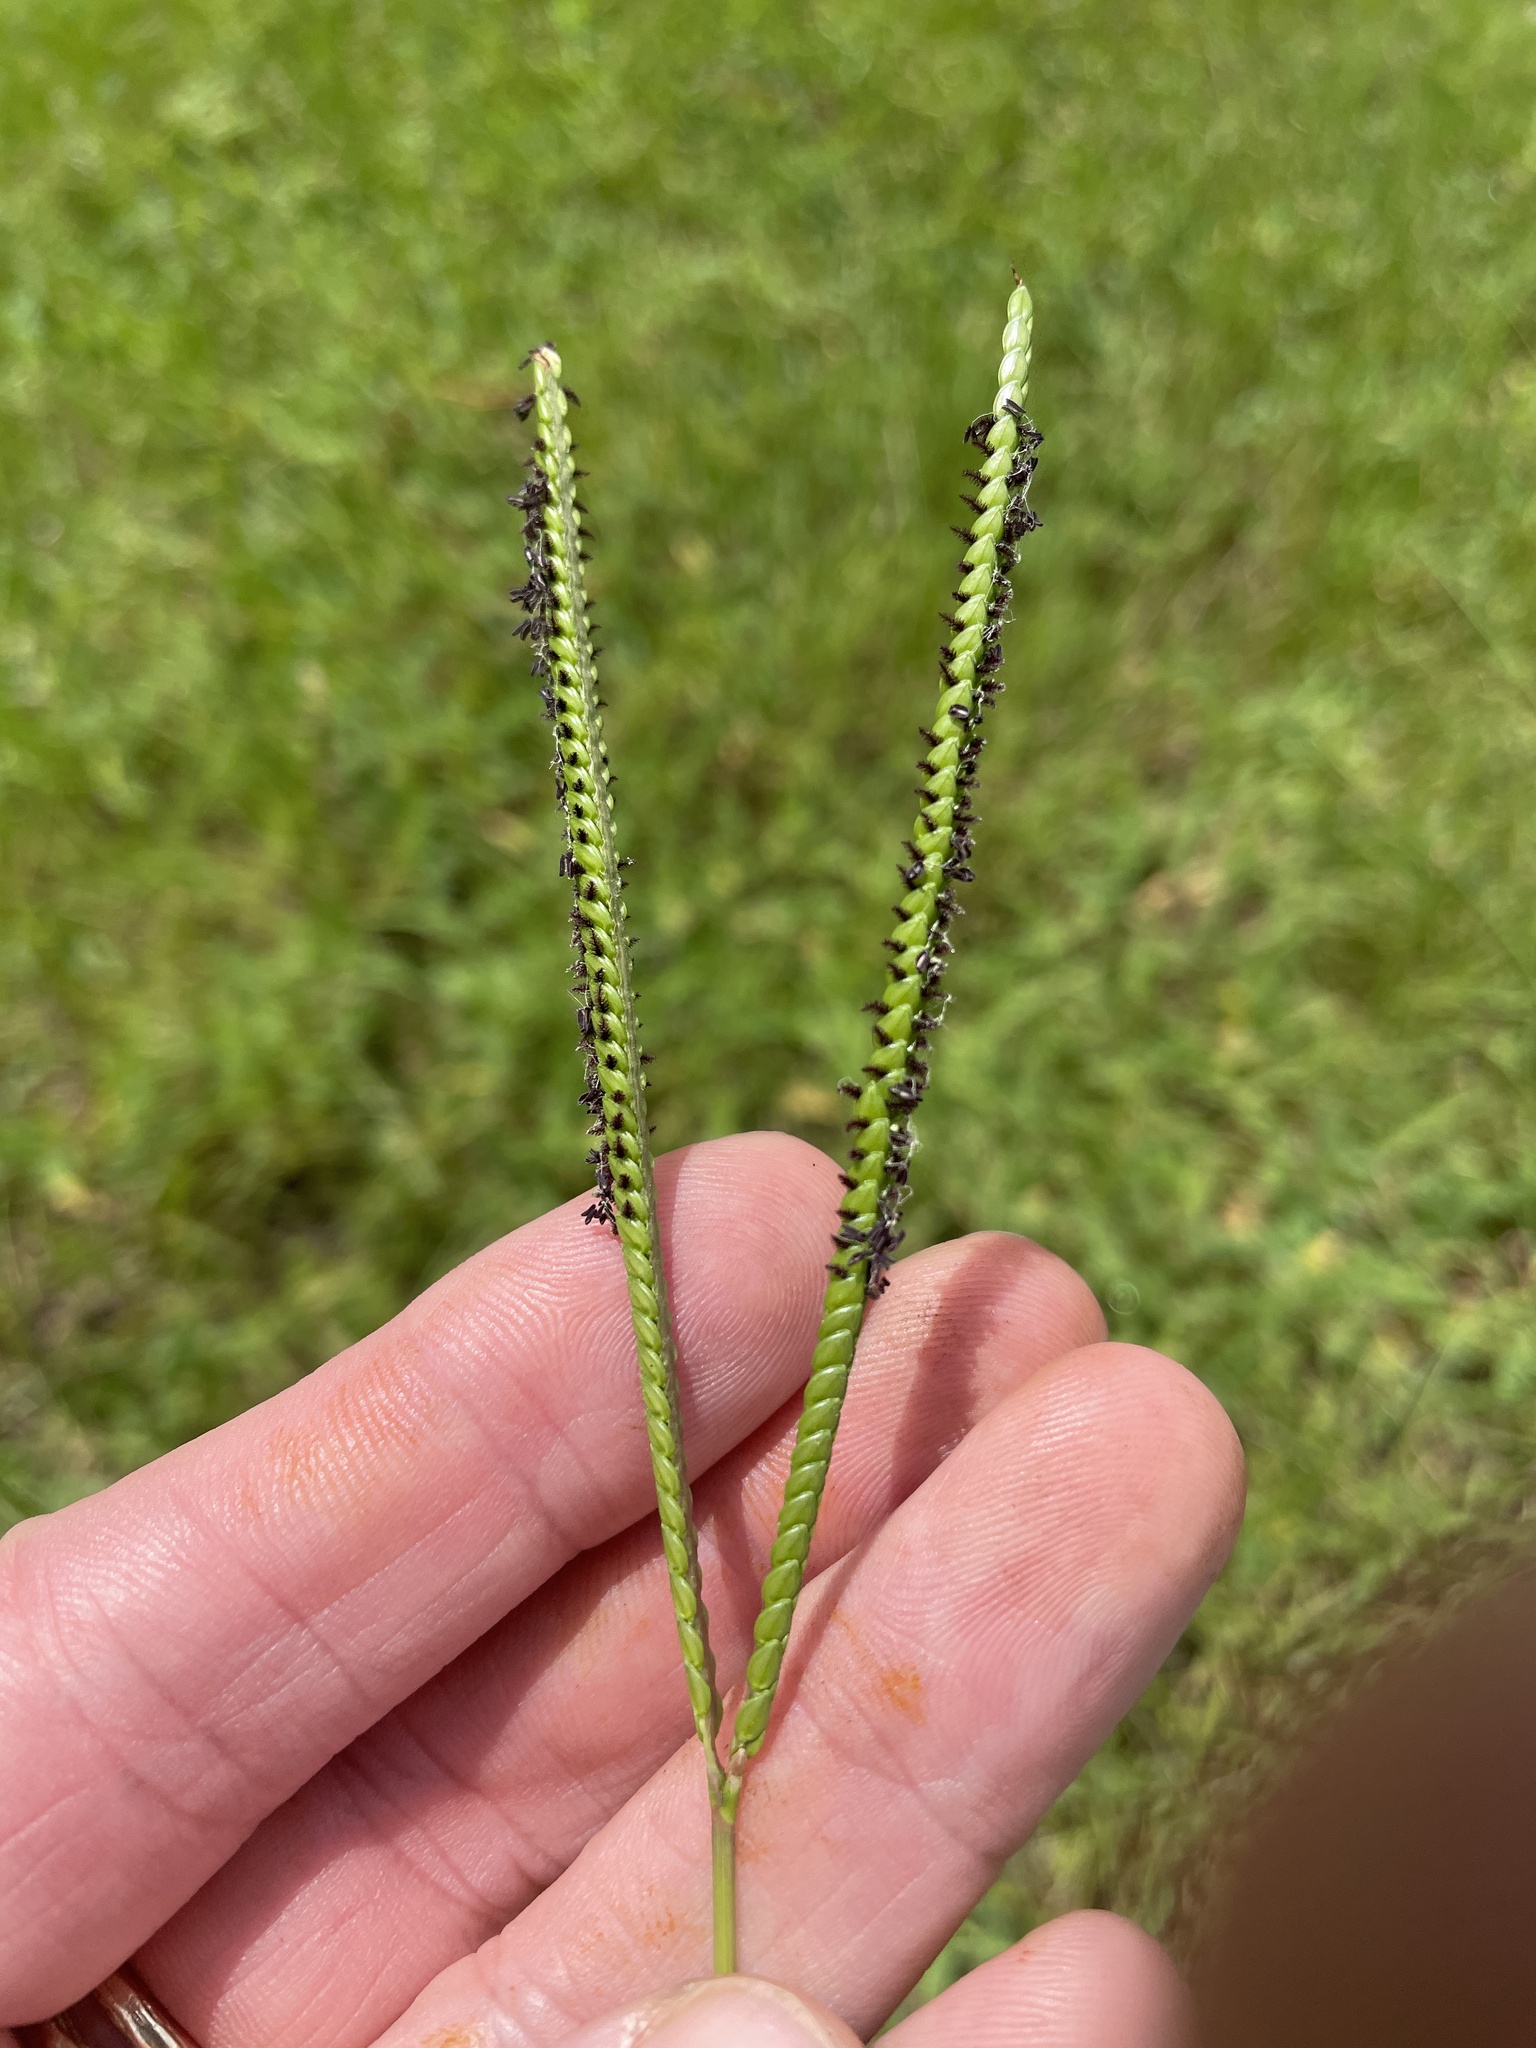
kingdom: Plantae
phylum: Tracheophyta
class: Liliopsida
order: Poales
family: Poaceae
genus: Paspalum
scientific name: Paspalum notatum
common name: Bahiagrass
